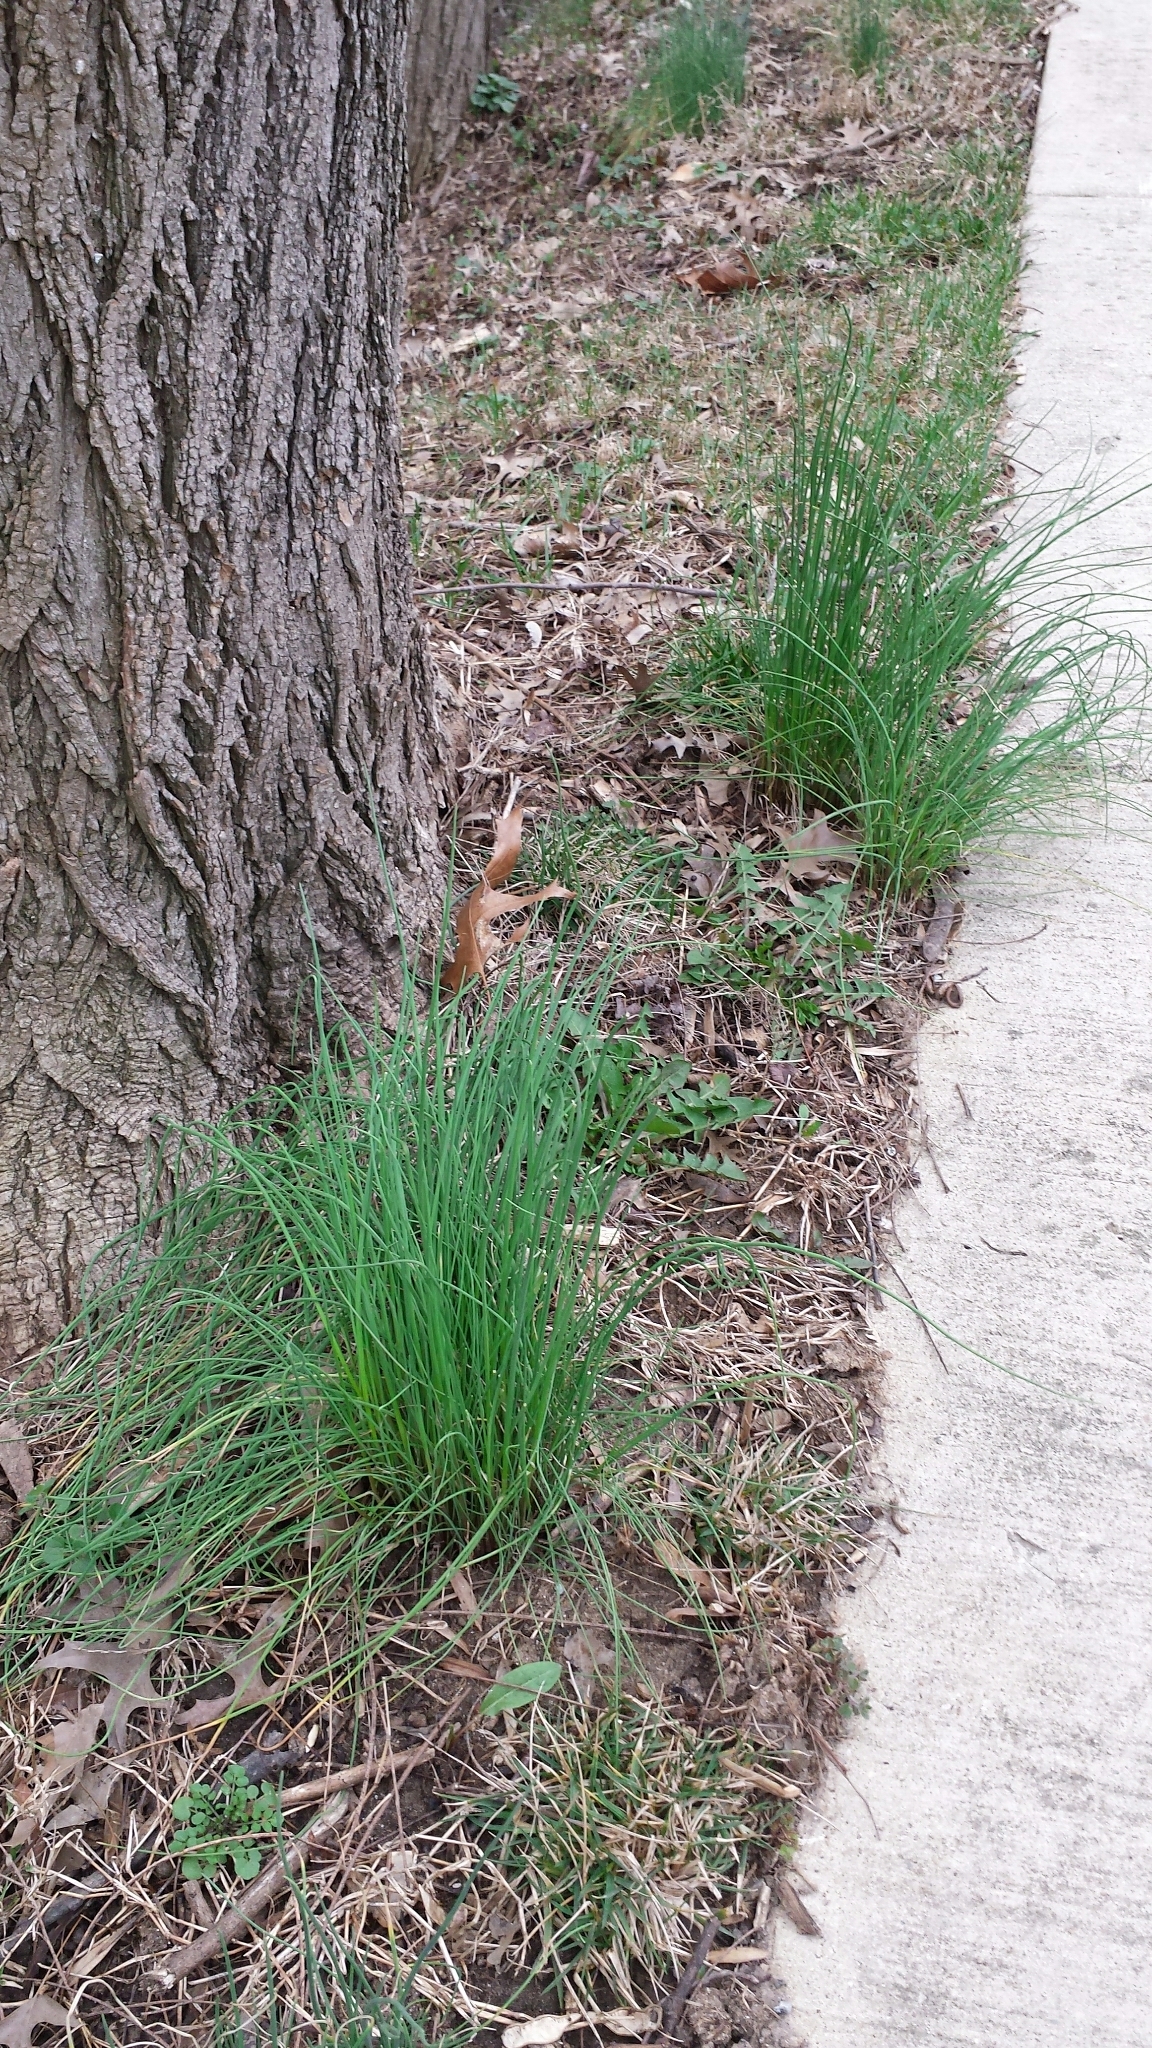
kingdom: Plantae
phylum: Tracheophyta
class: Liliopsida
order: Asparagales
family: Amaryllidaceae
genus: Allium
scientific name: Allium schoenoprasum
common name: Chives
